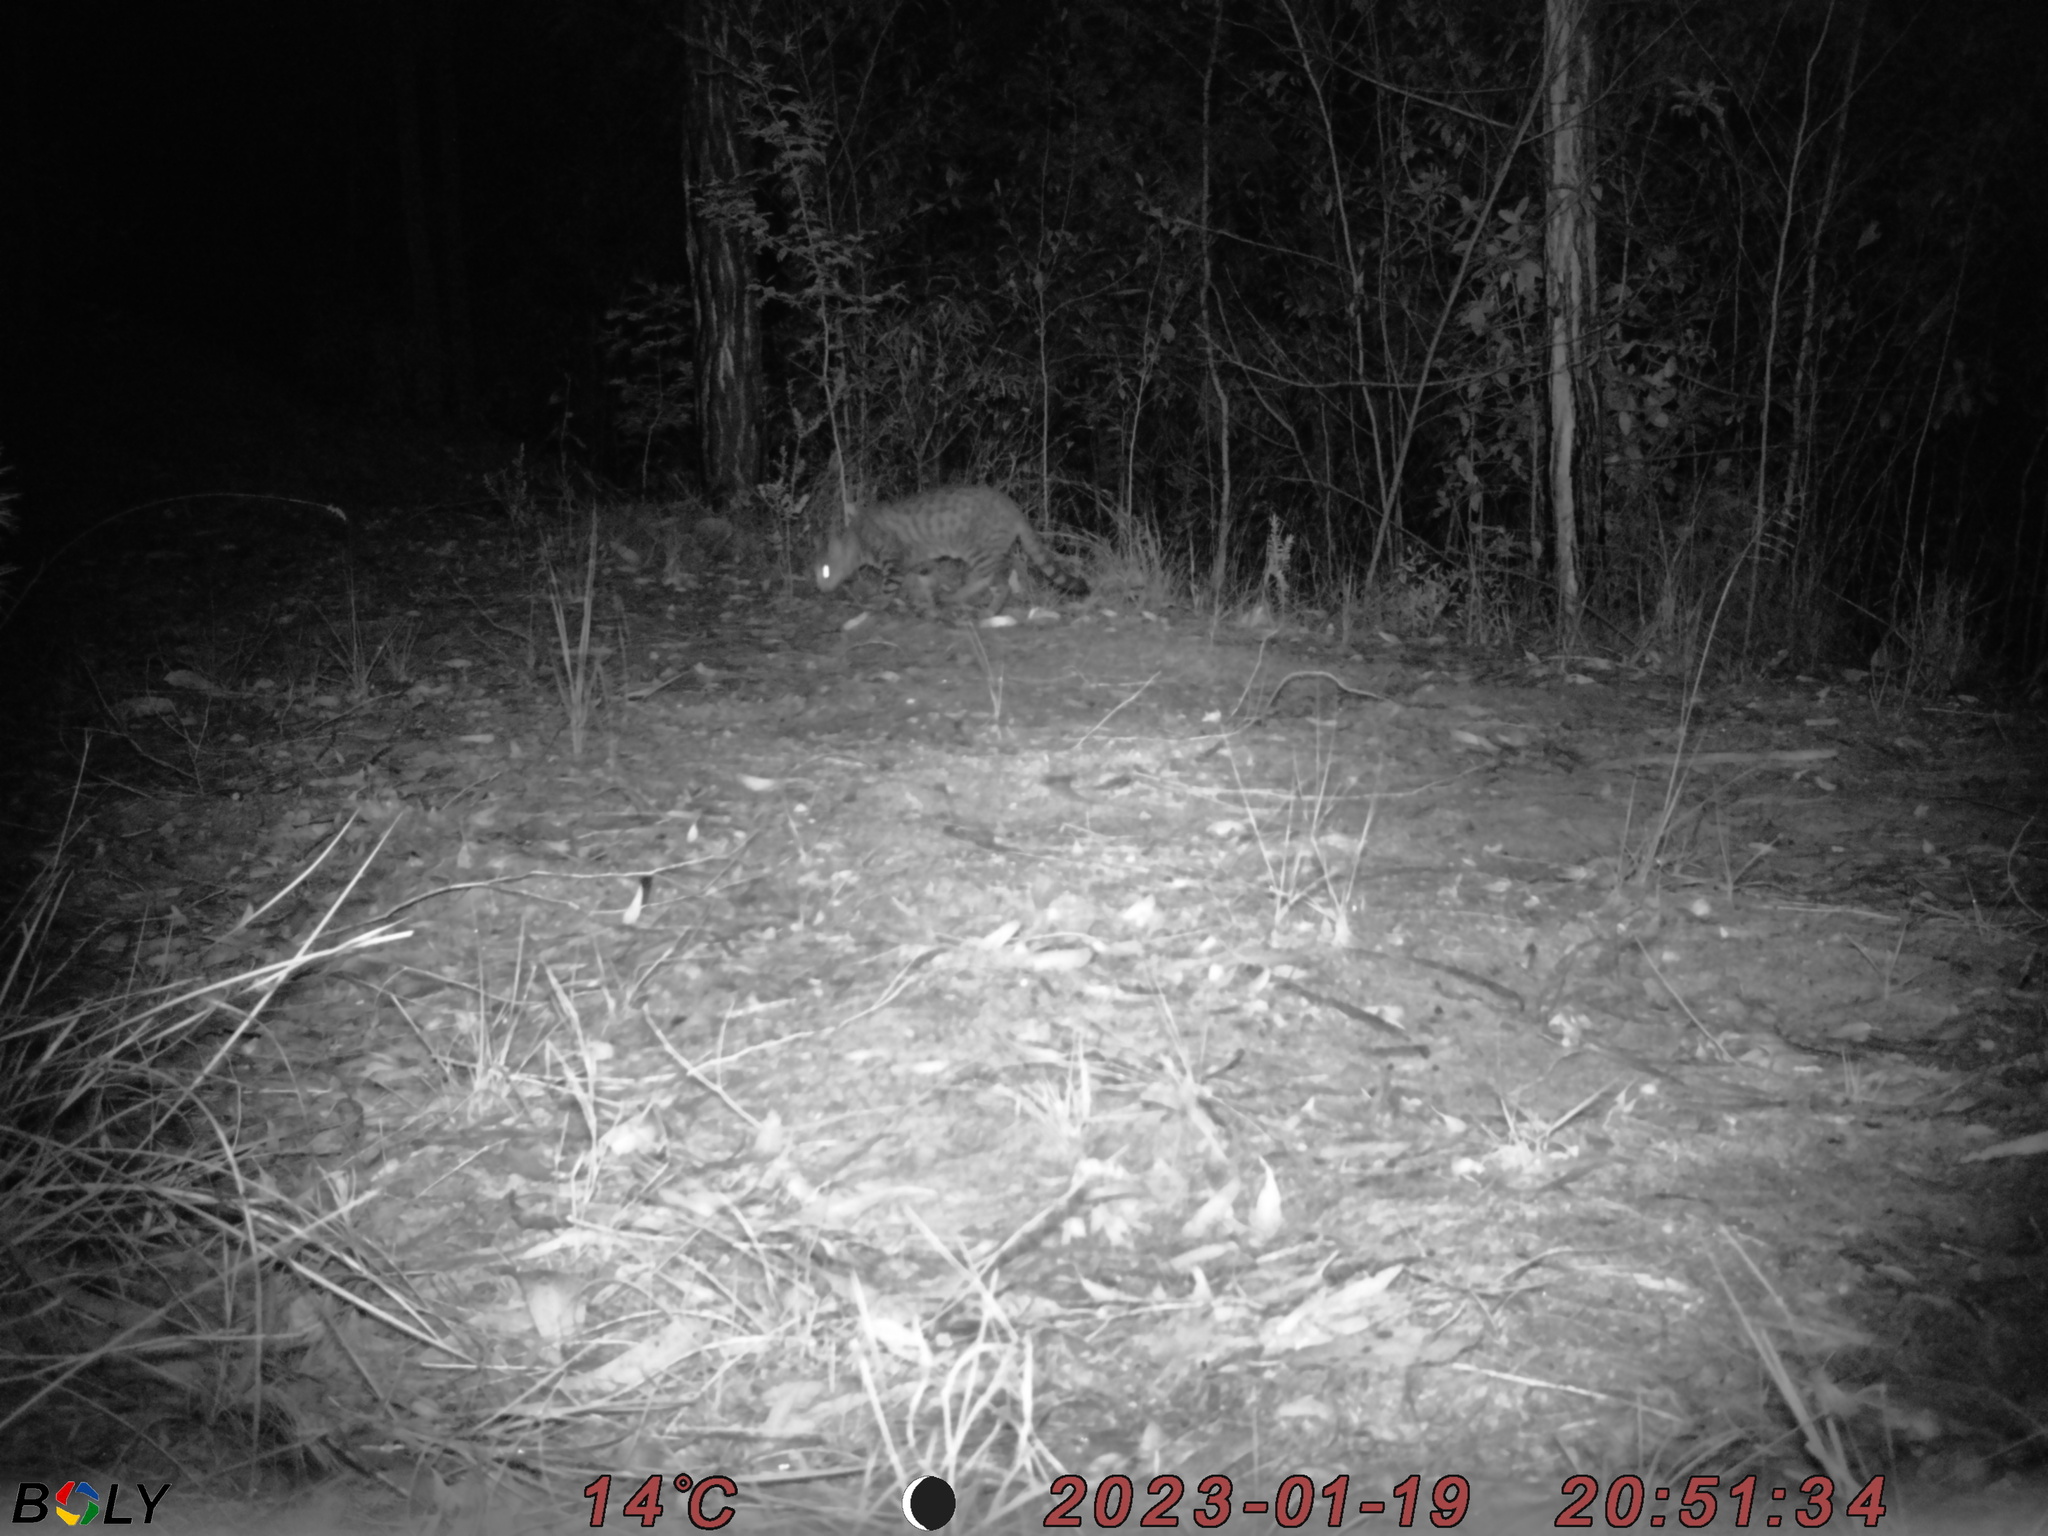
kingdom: Animalia
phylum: Chordata
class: Mammalia
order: Carnivora
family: Felidae
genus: Felis
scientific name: Felis catus
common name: Domestic cat
